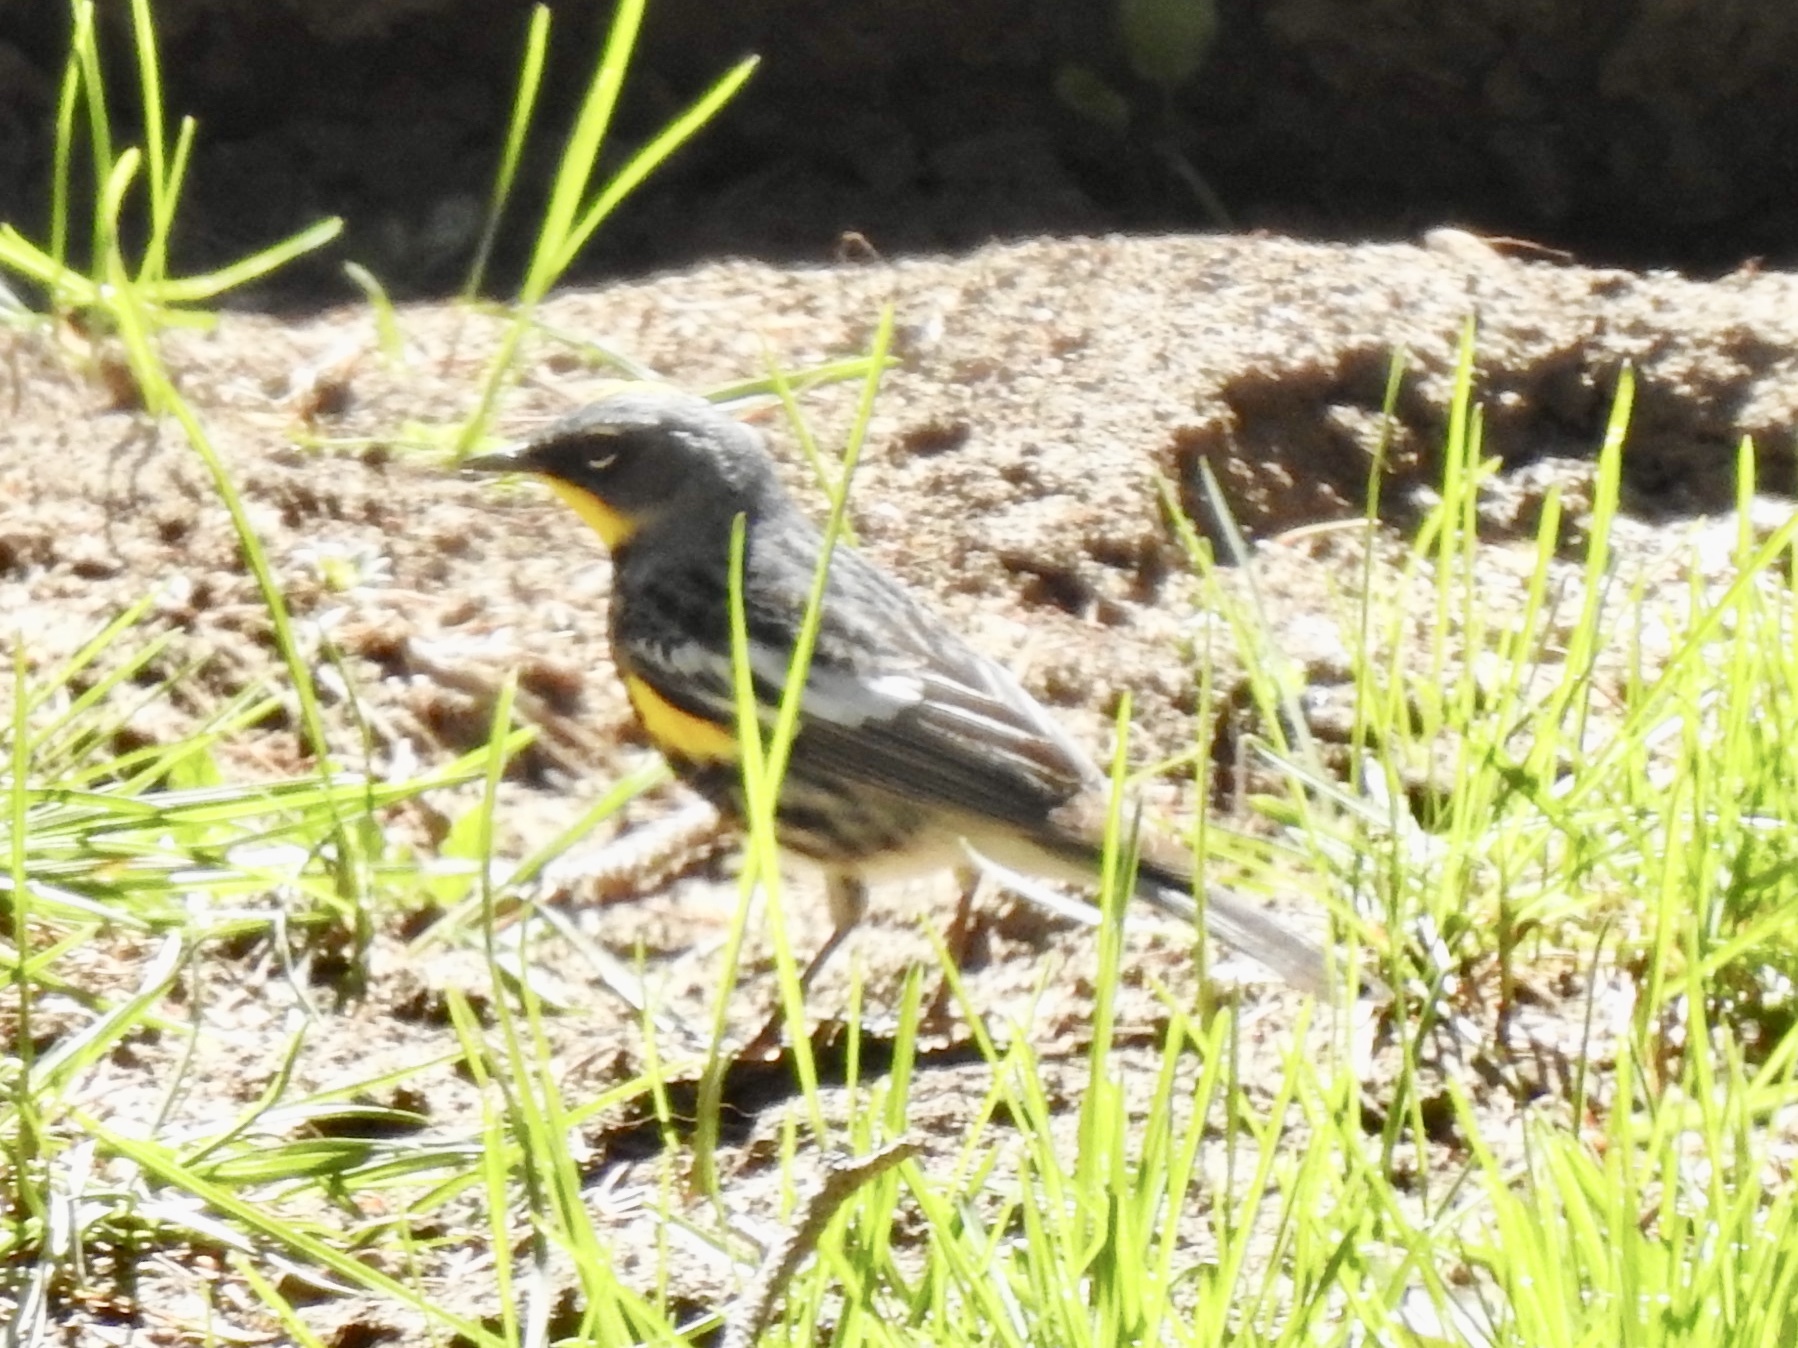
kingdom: Animalia
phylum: Chordata
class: Aves
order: Passeriformes
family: Parulidae
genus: Setophaga
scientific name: Setophaga coronata
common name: Myrtle warbler
